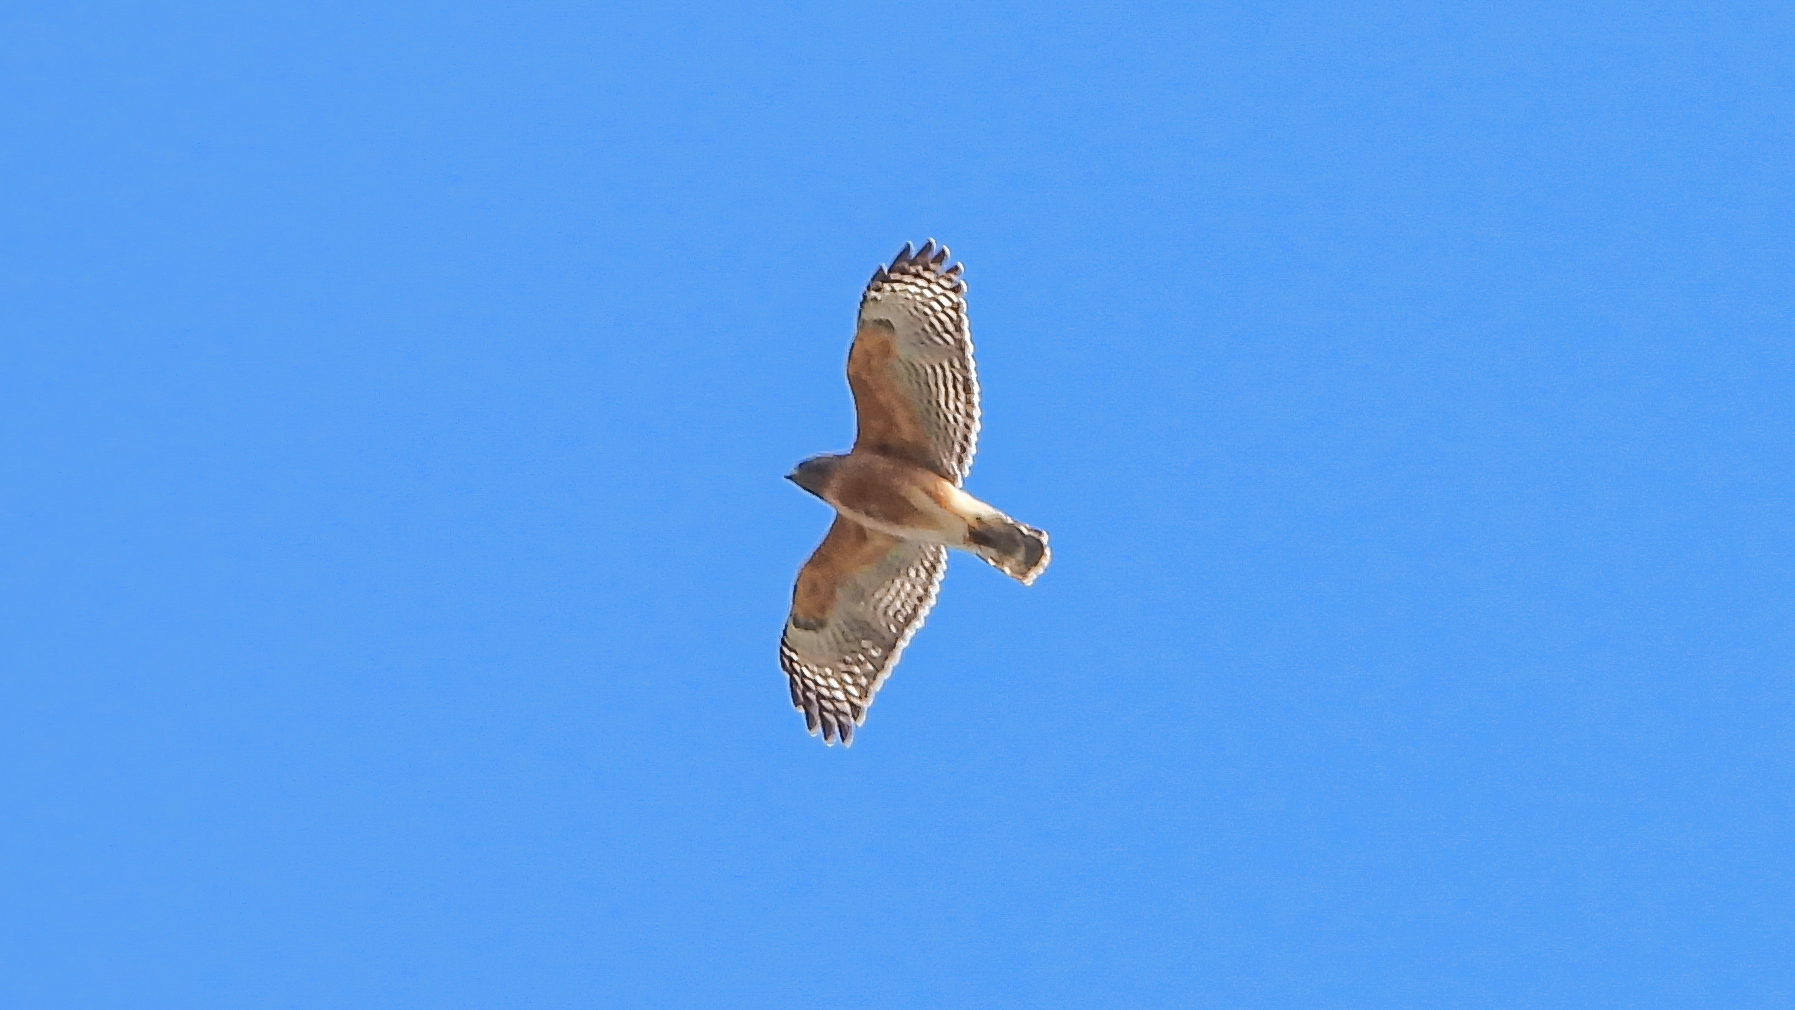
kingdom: Animalia
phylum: Chordata
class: Aves
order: Accipitriformes
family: Accipitridae
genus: Buteo
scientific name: Buteo lineatus
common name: Red-shouldered hawk
